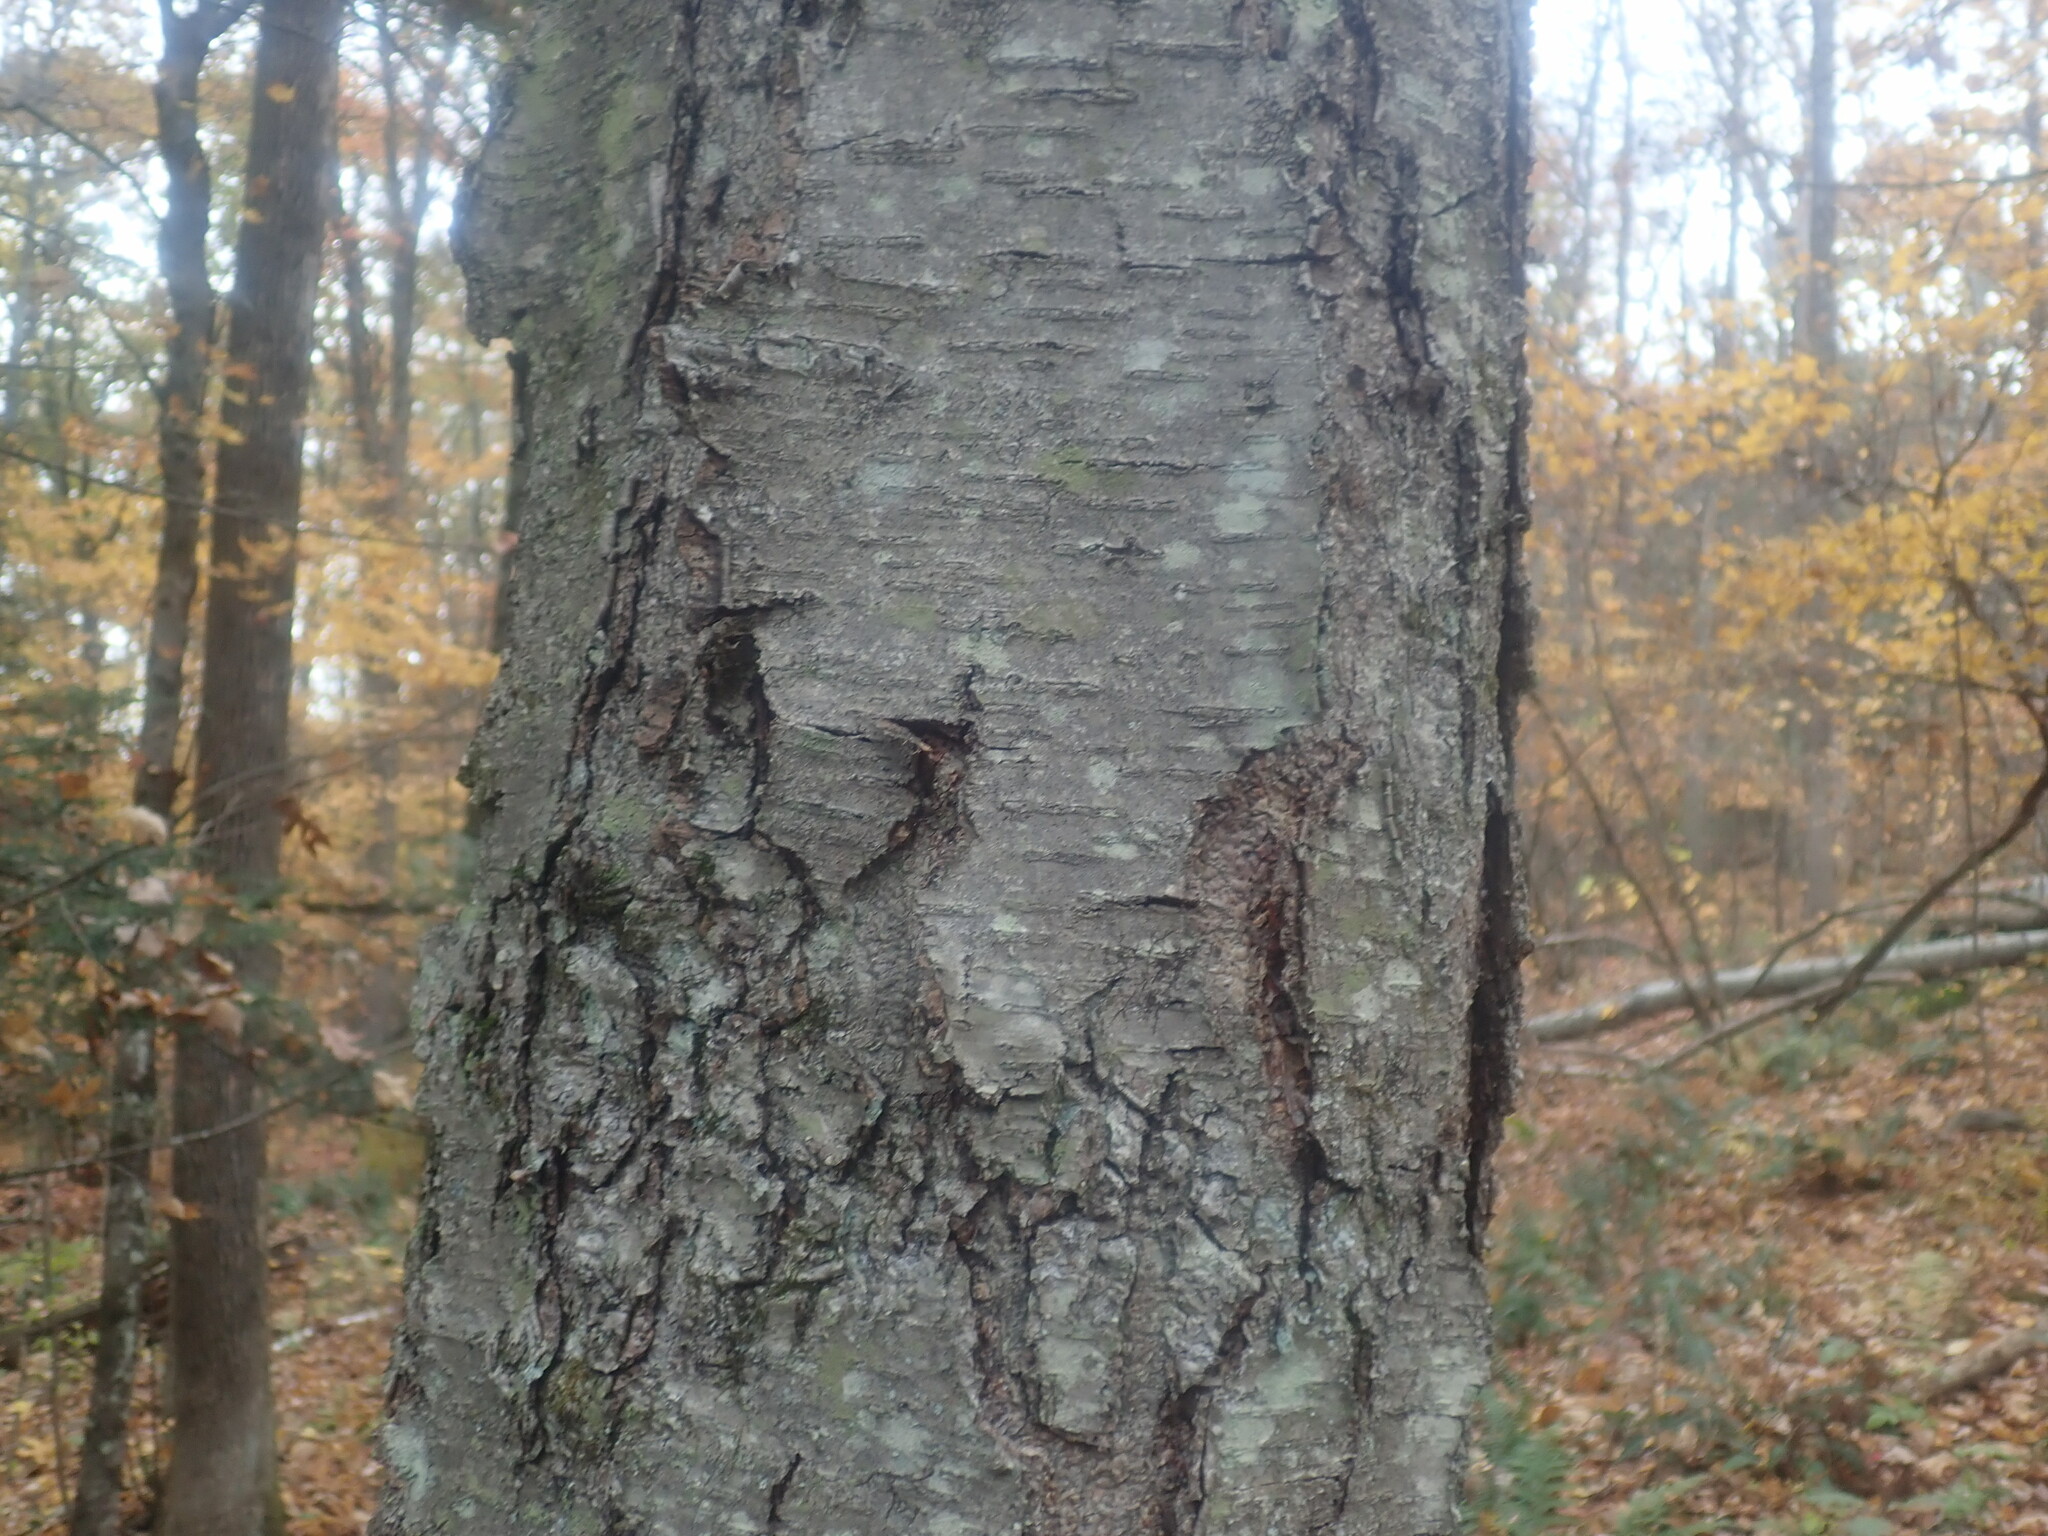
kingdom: Plantae
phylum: Tracheophyta
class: Magnoliopsida
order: Fagales
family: Betulaceae
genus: Betula
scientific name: Betula lenta
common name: Black birch
